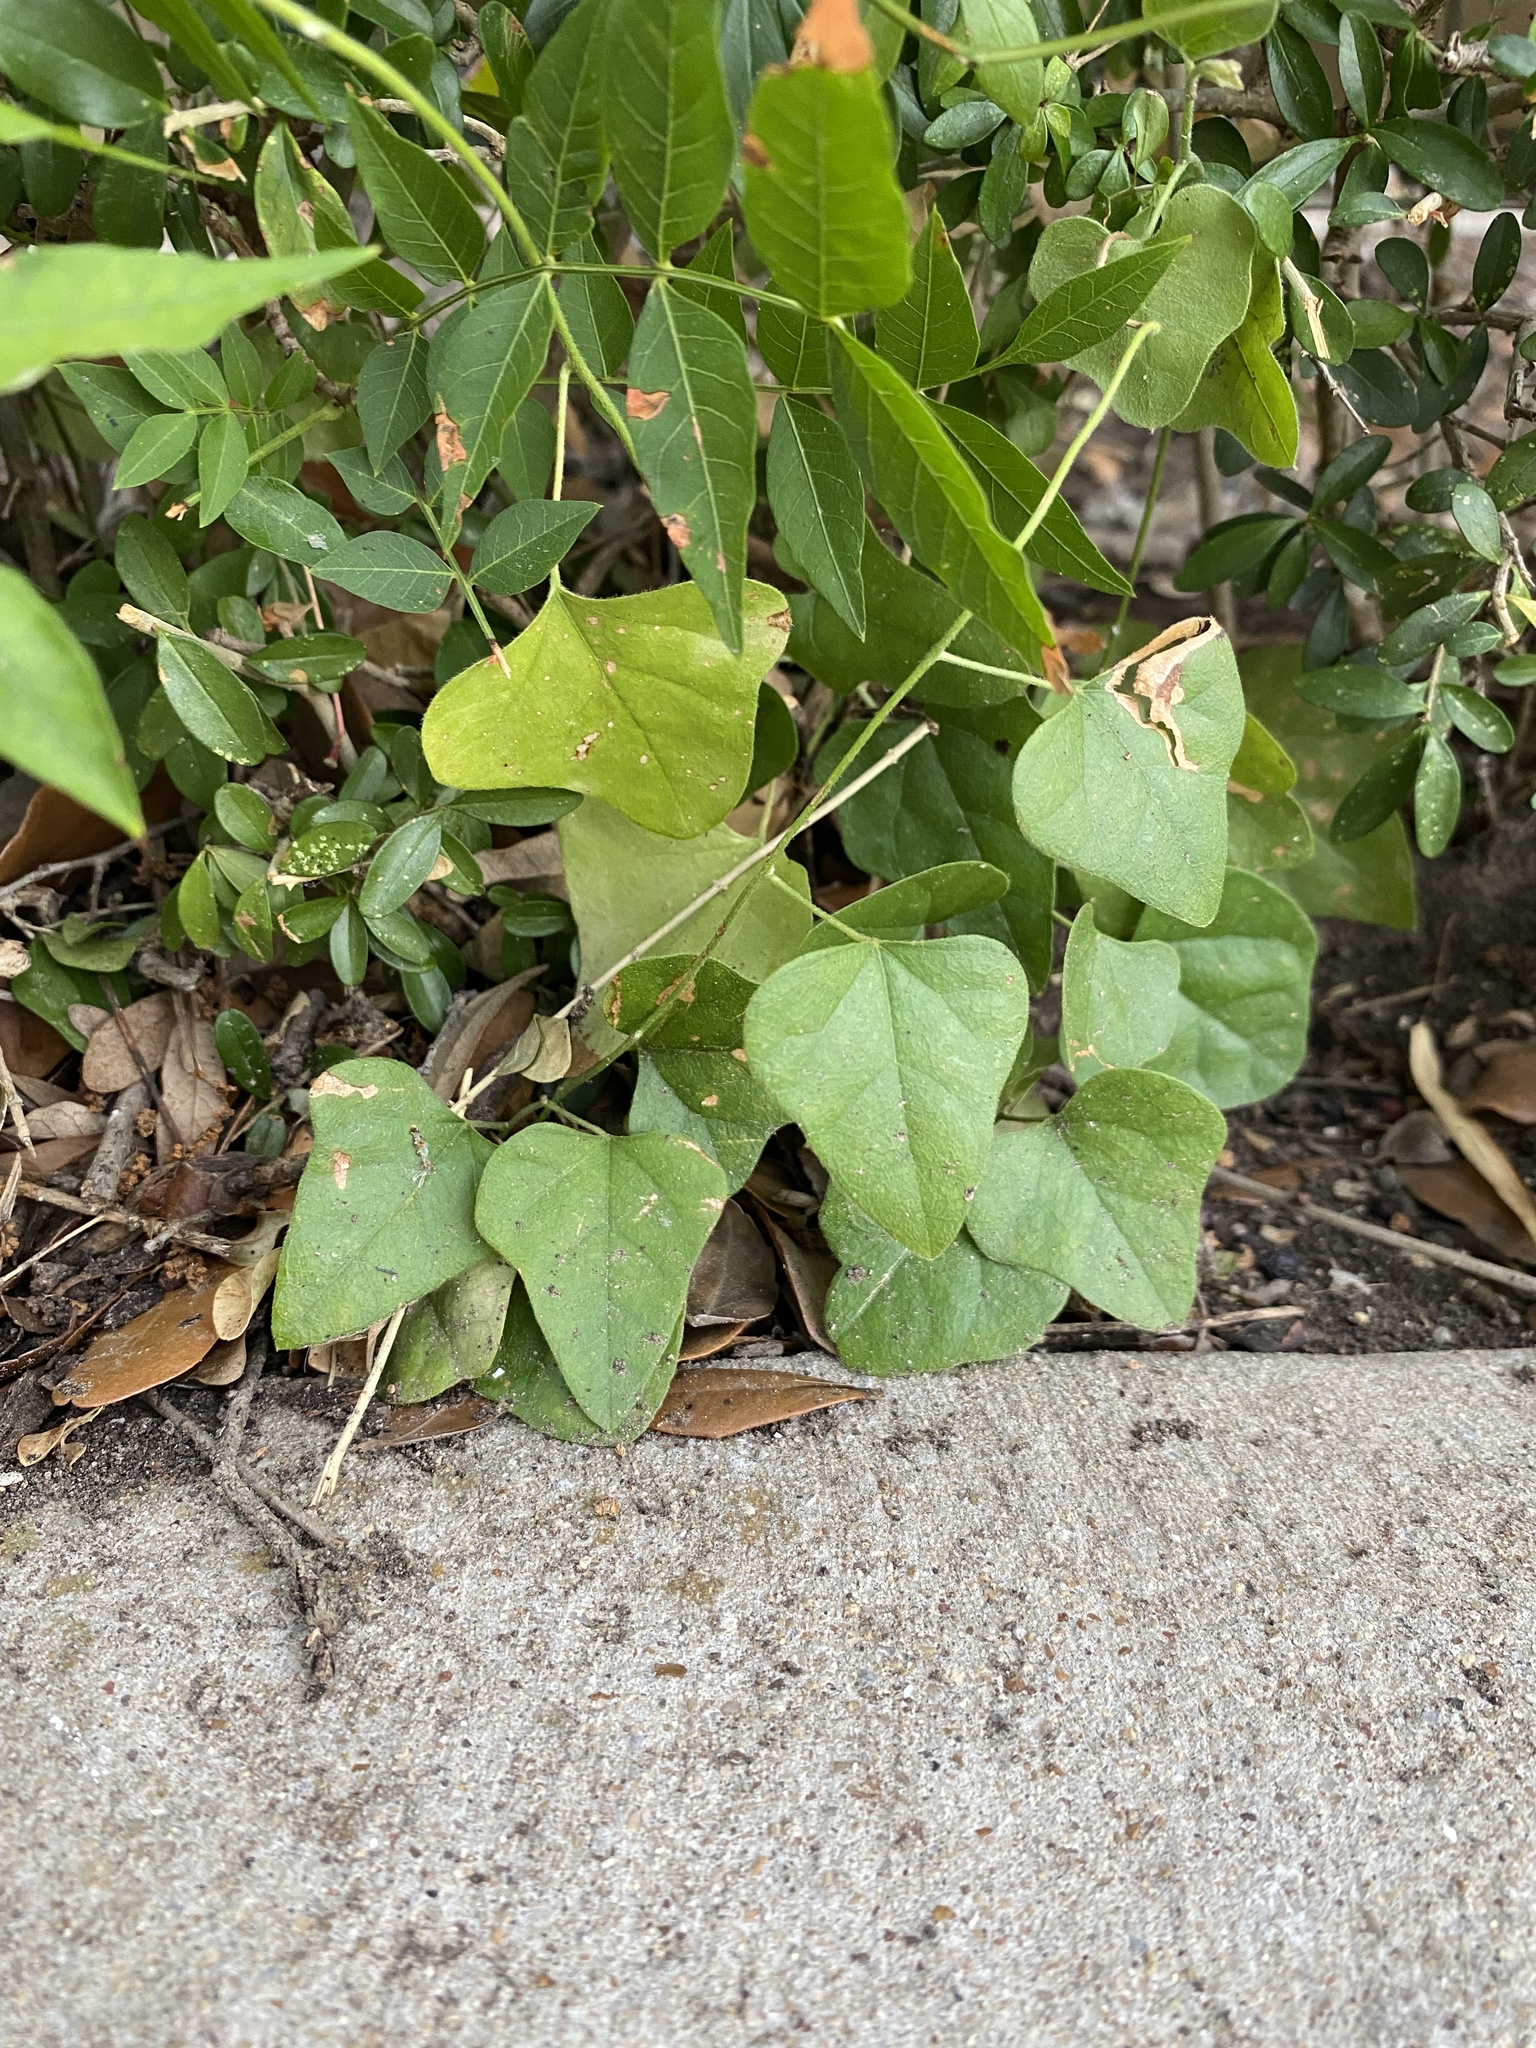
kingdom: Plantae
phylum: Tracheophyta
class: Magnoliopsida
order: Ranunculales
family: Menispermaceae
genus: Cocculus
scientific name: Cocculus carolinus
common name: Carolina moonseed
